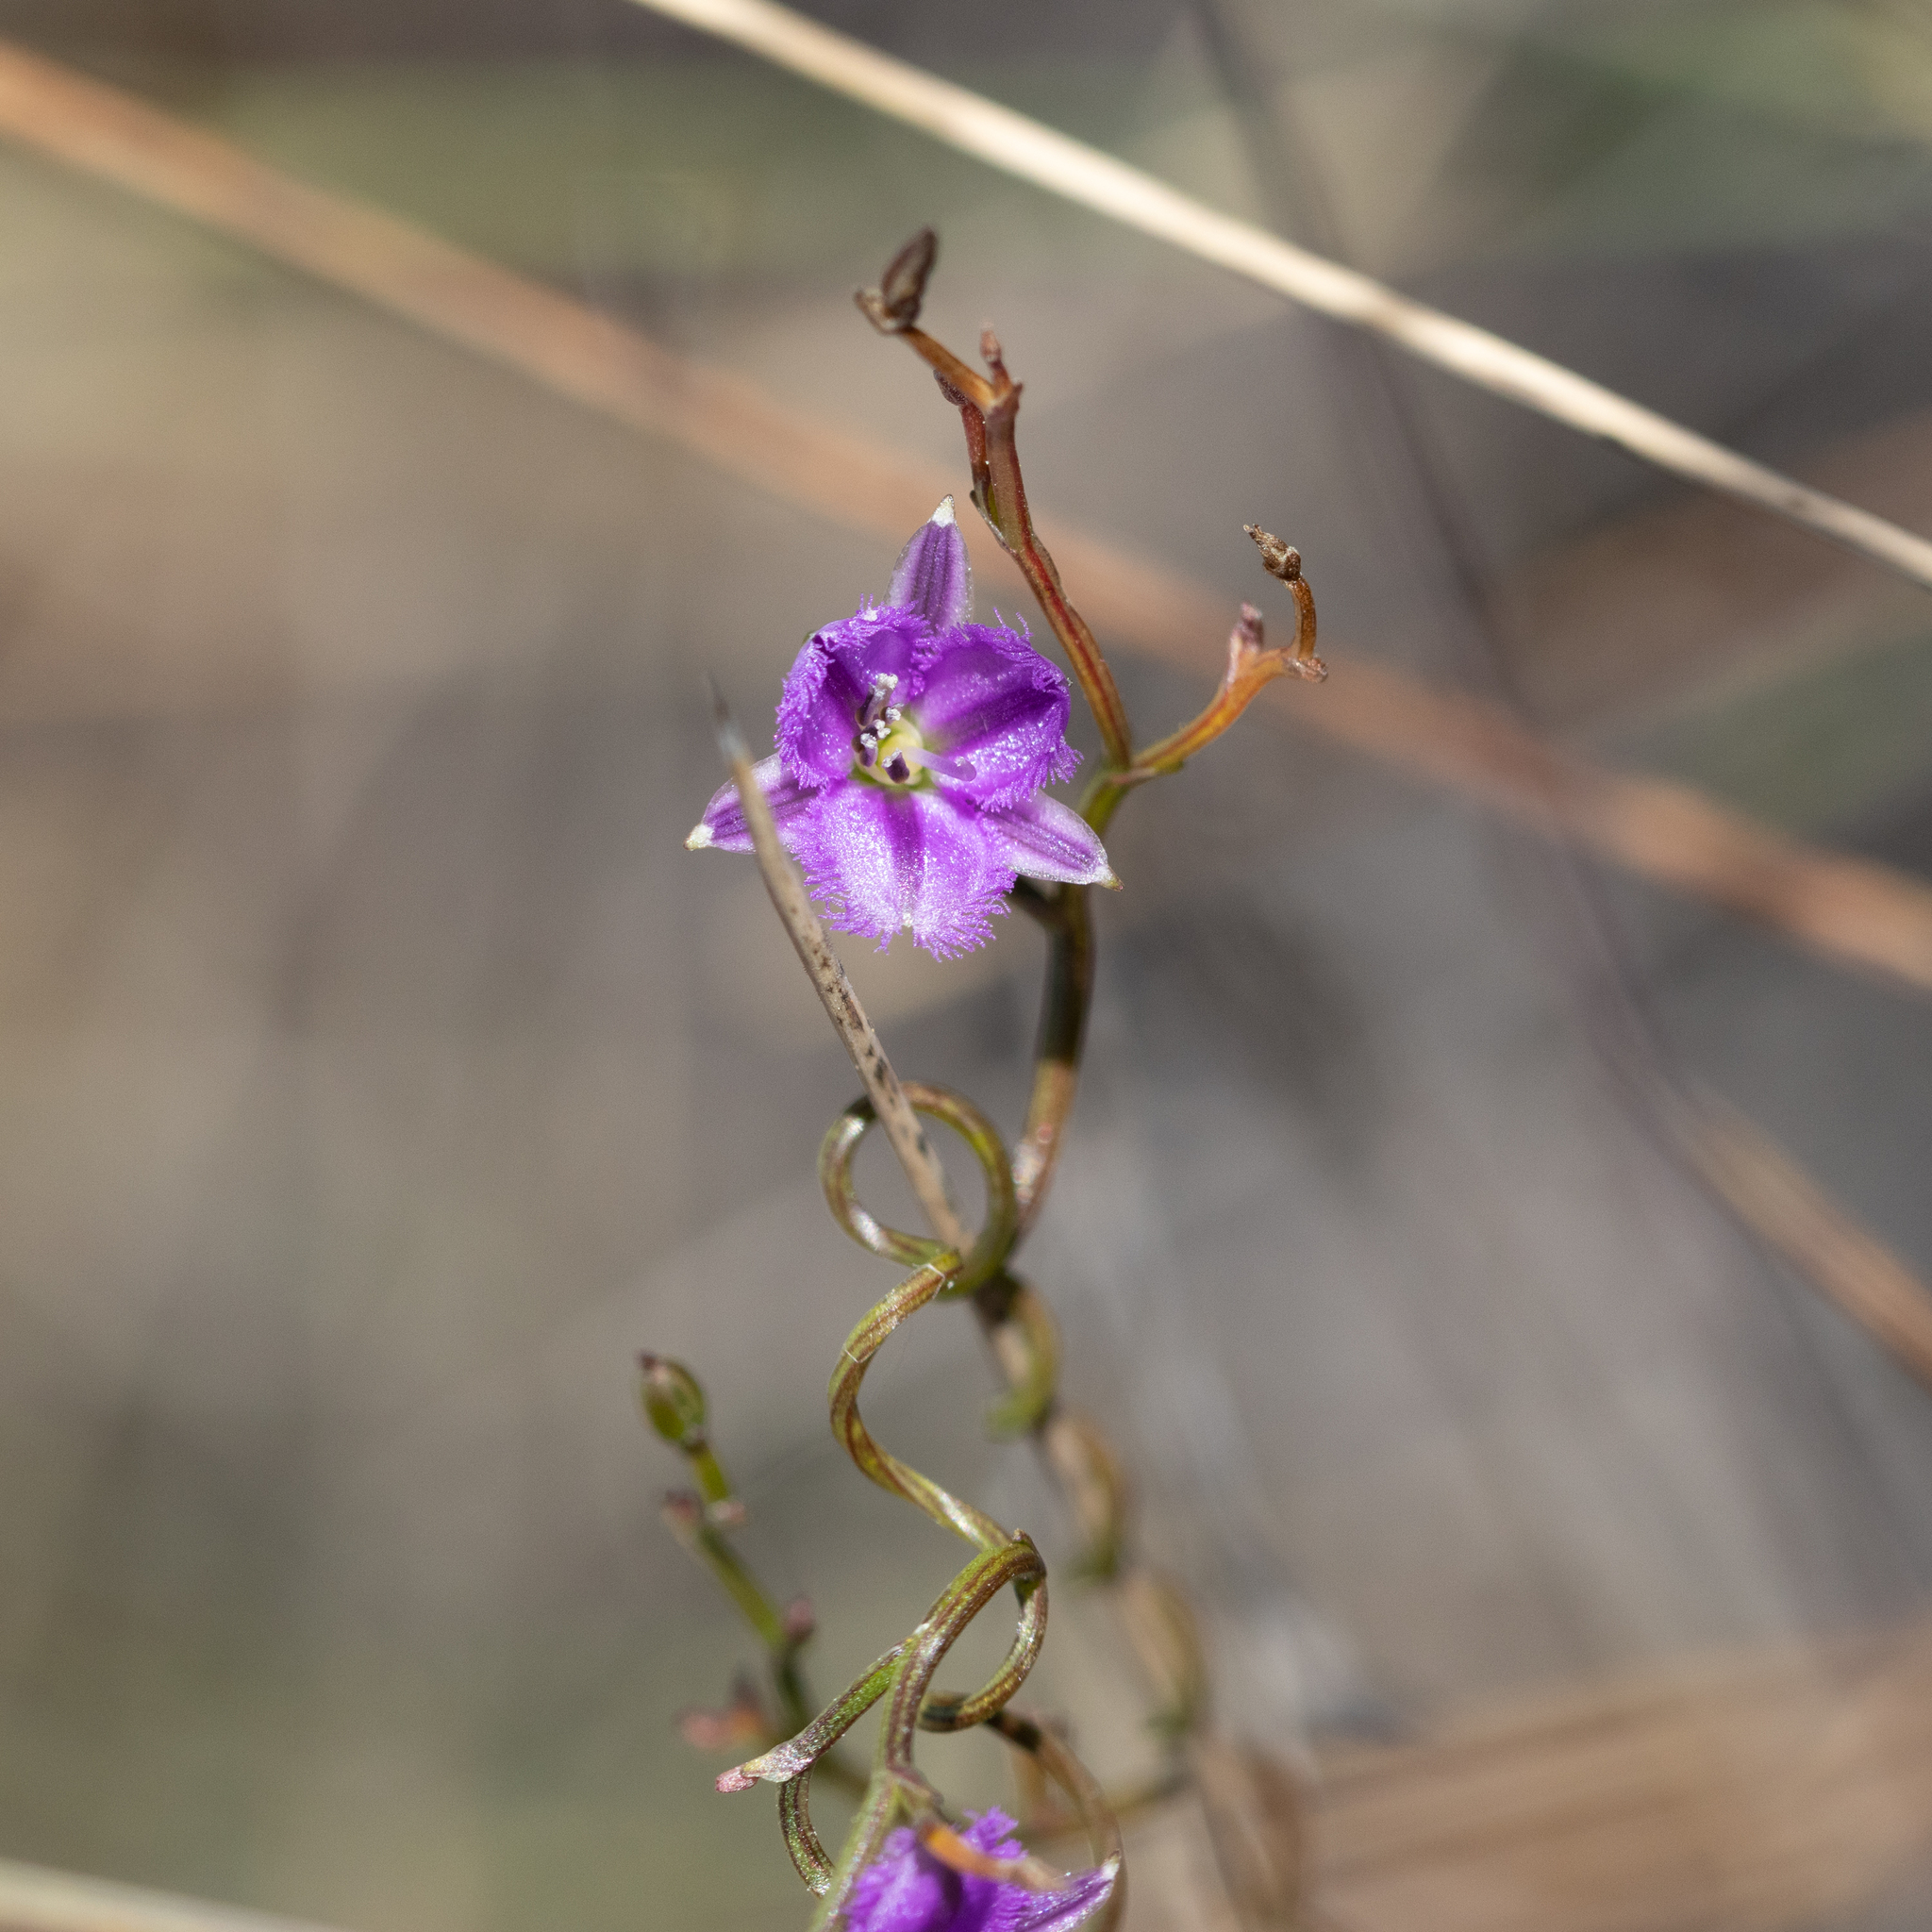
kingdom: Plantae
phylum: Tracheophyta
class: Liliopsida
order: Asparagales
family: Asparagaceae
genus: Thysanotus
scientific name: Thysanotus patersonii
